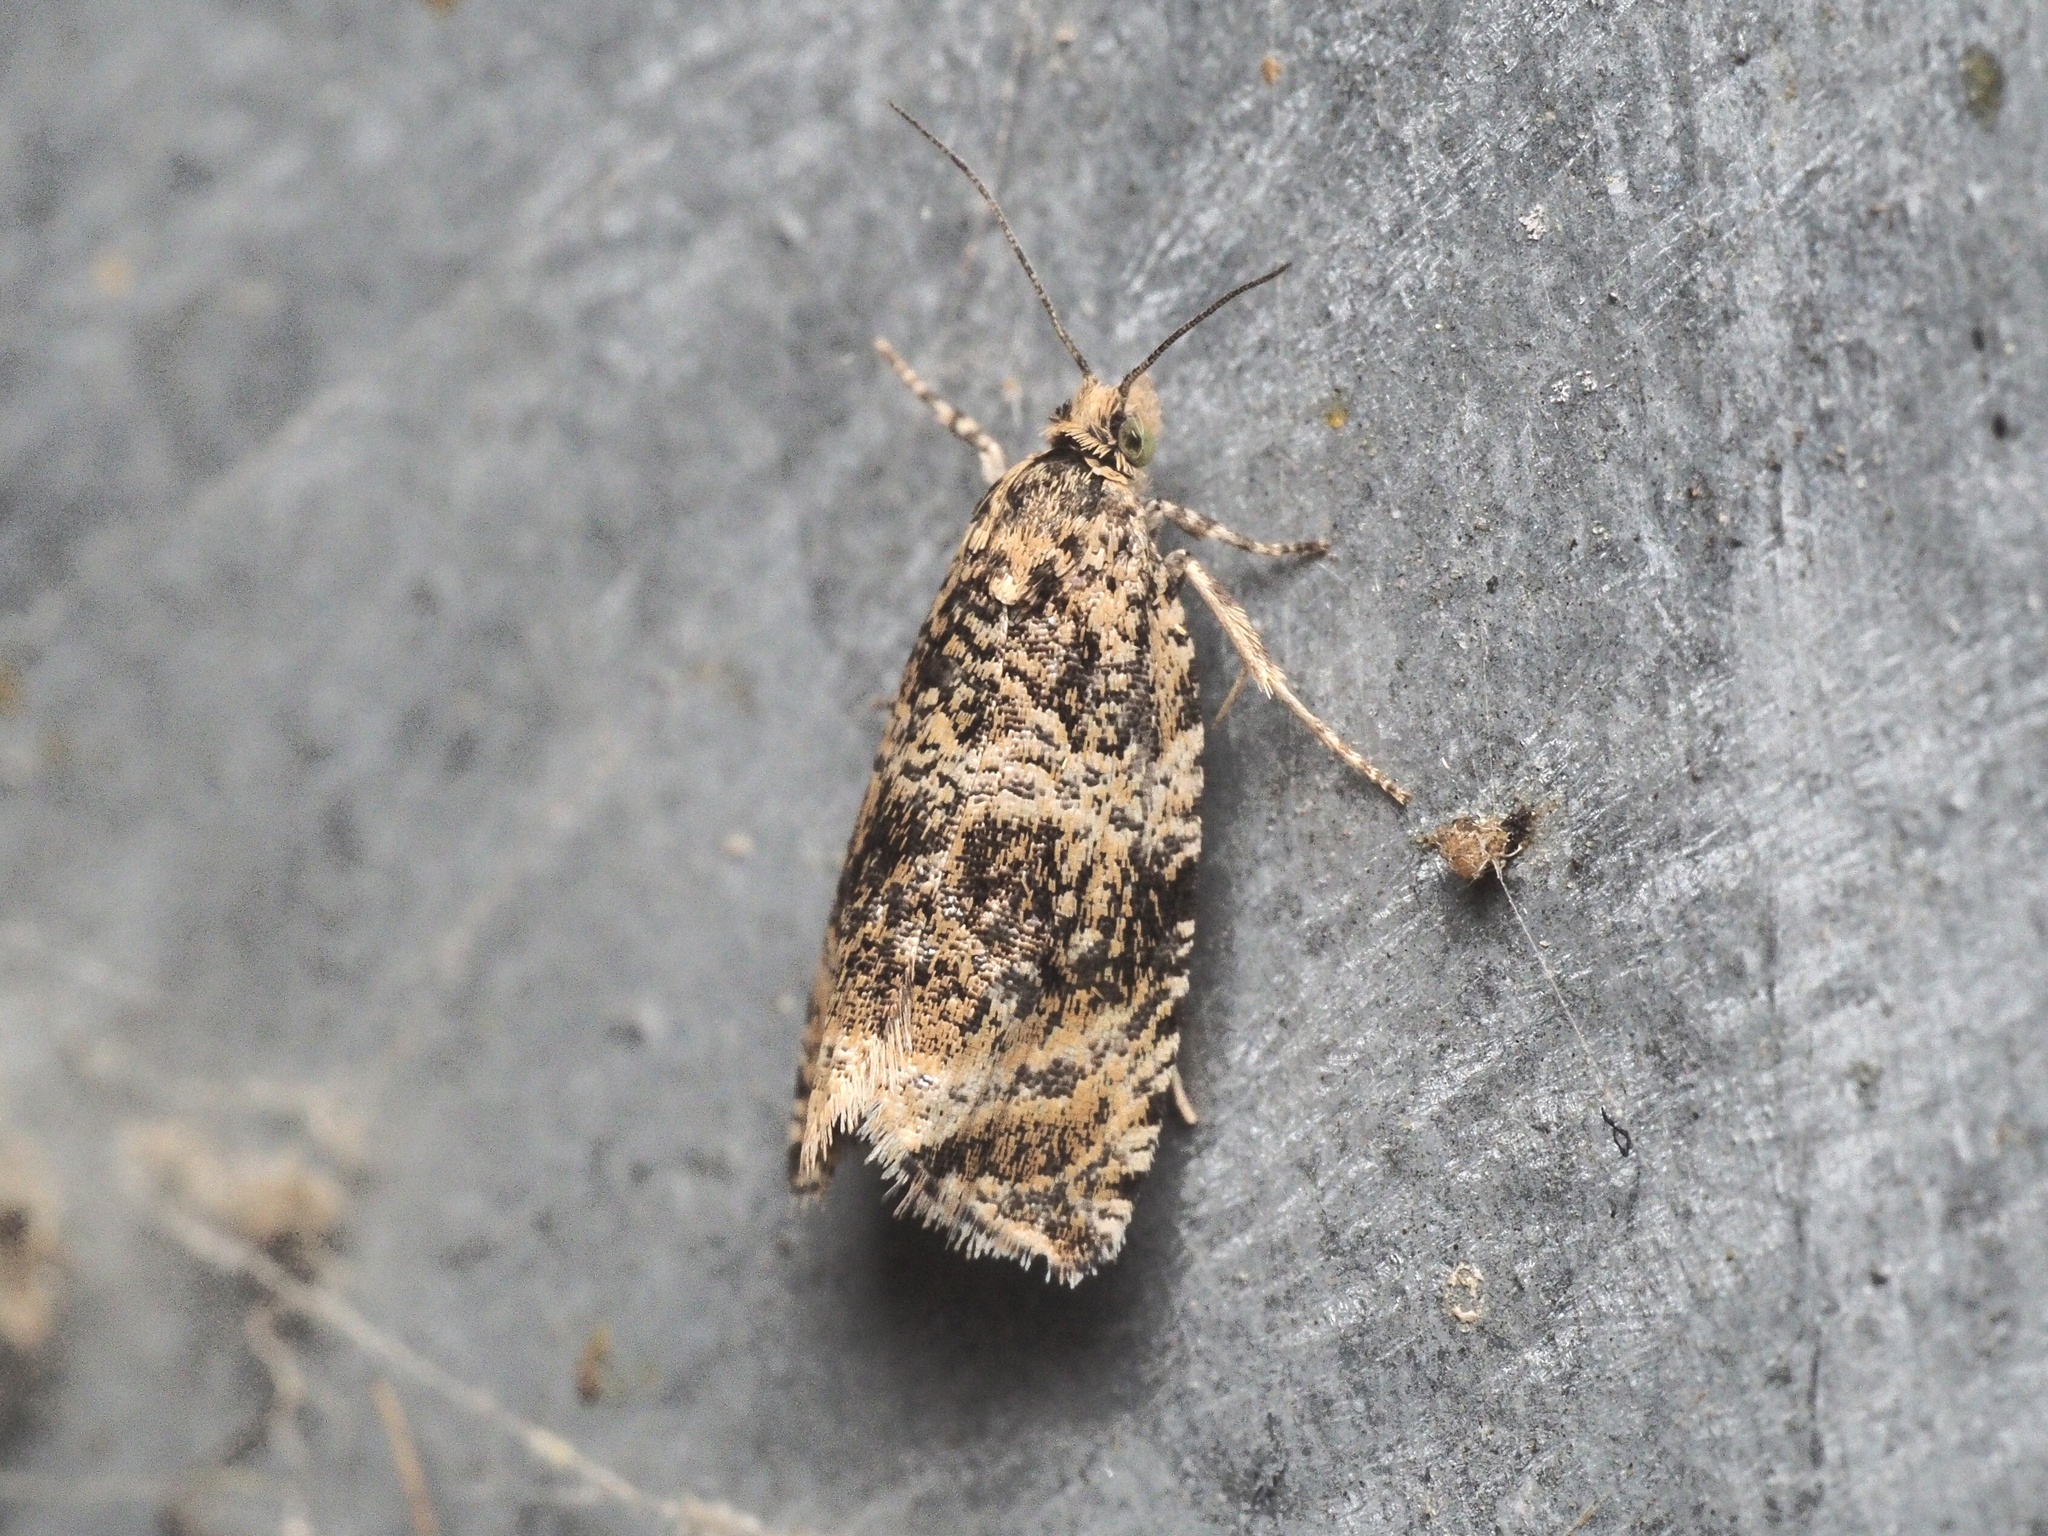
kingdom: Animalia
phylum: Arthropoda
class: Insecta
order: Lepidoptera
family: Tortricidae
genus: Syricoris
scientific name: Syricoris lacunana
